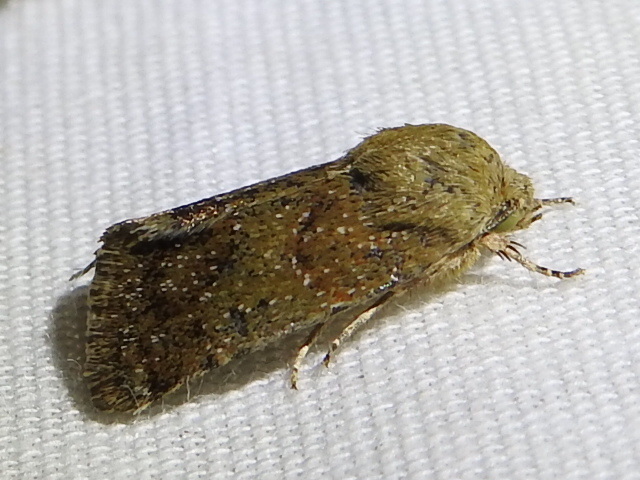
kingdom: Animalia
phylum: Arthropoda
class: Insecta
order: Lepidoptera
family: Noctuidae
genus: Schinia
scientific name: Schinia saturata
